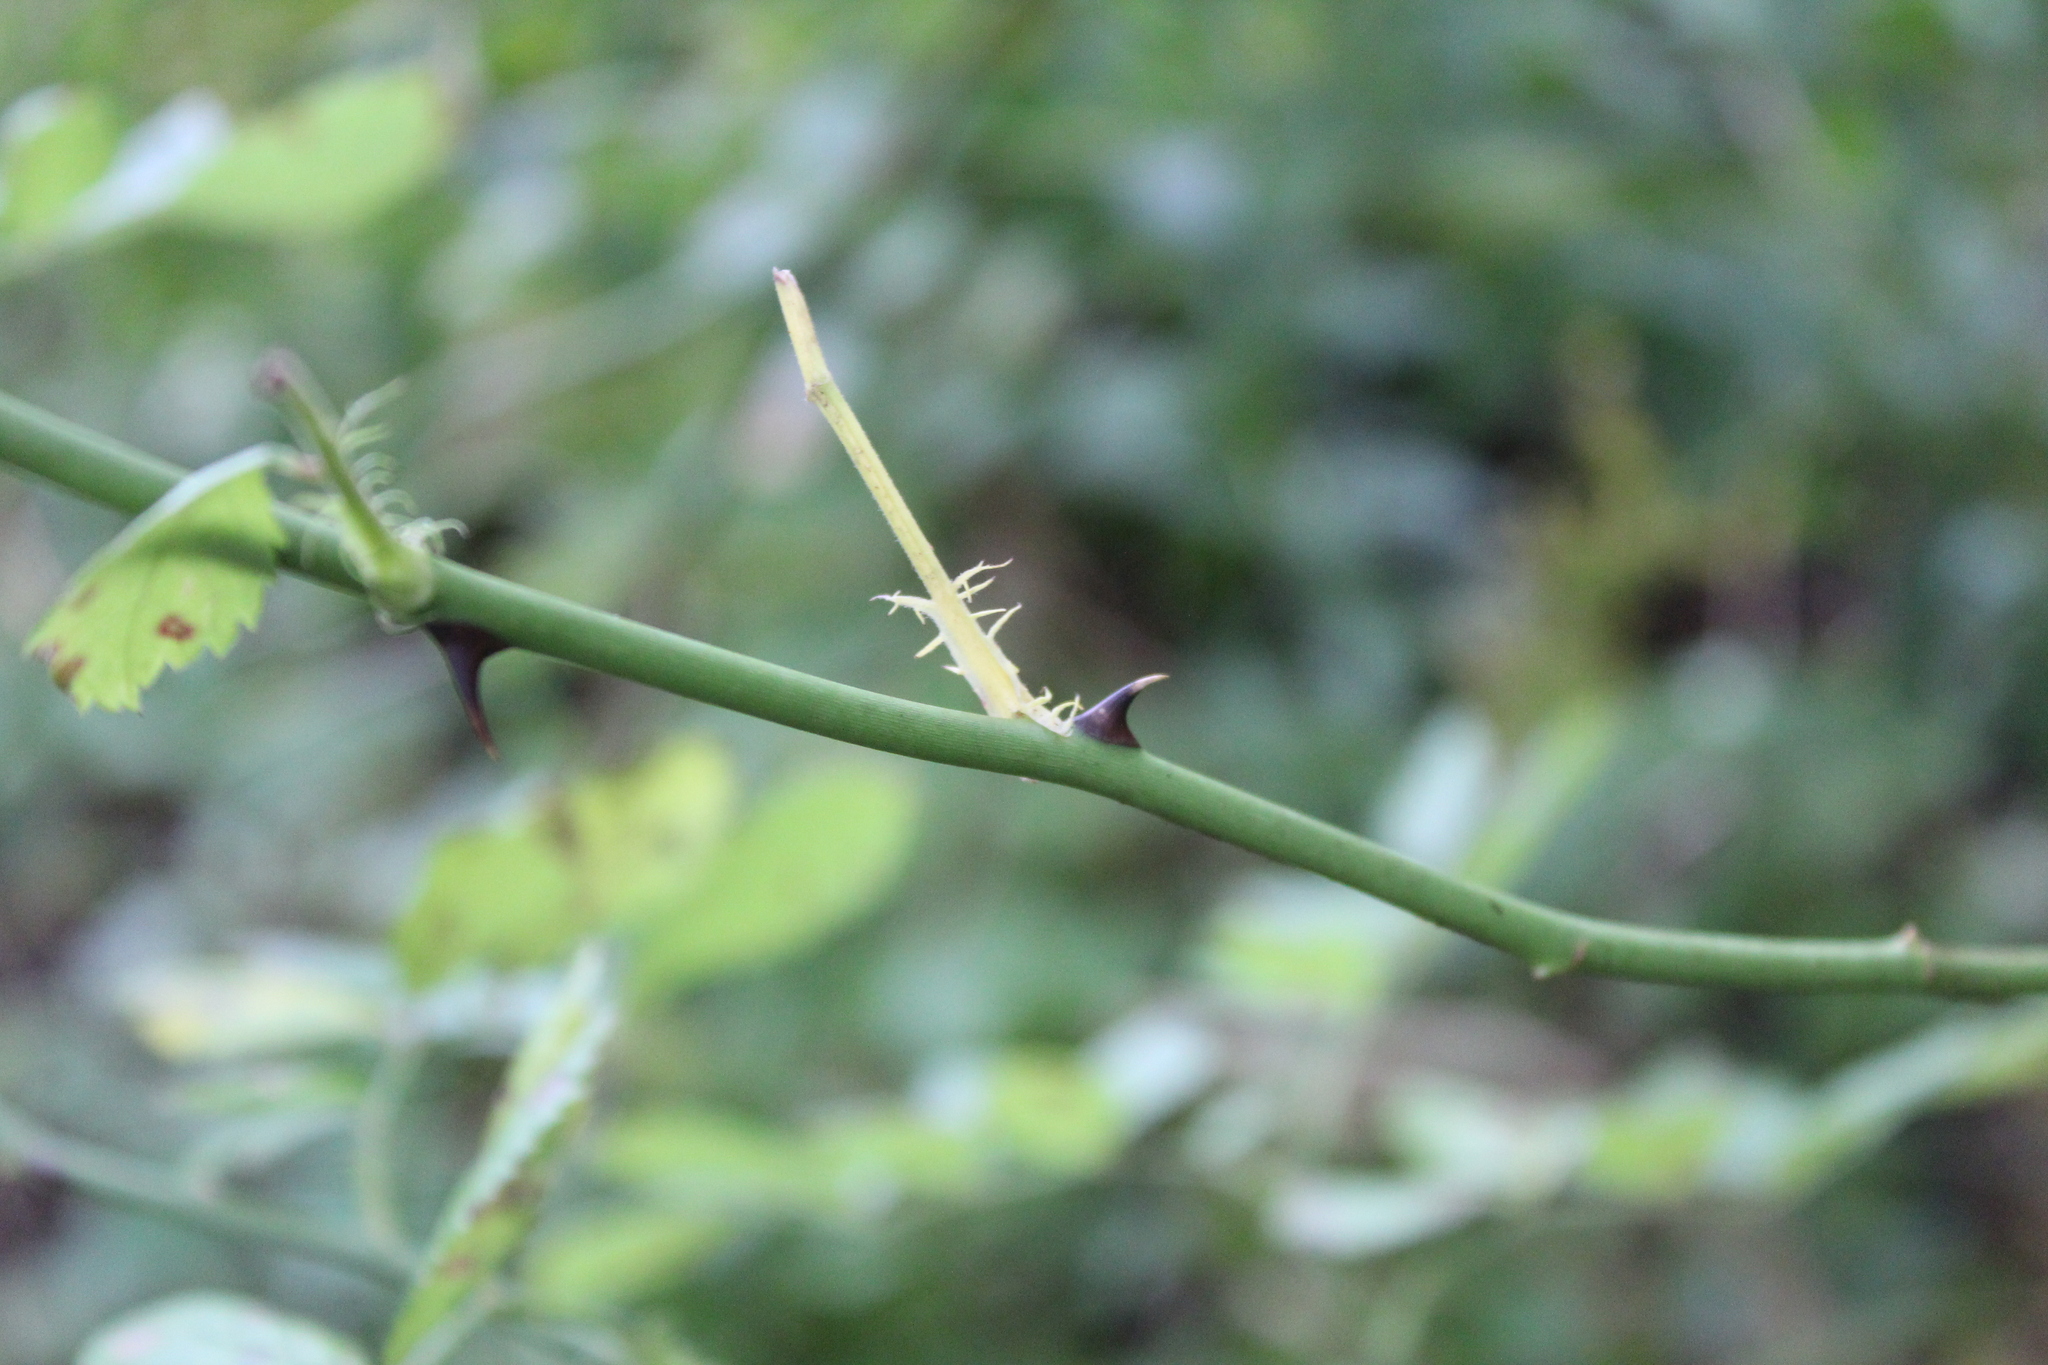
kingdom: Plantae
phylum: Tracheophyta
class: Magnoliopsida
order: Rosales
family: Rosaceae
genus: Rosa
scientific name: Rosa multiflora
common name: Multiflora rose
